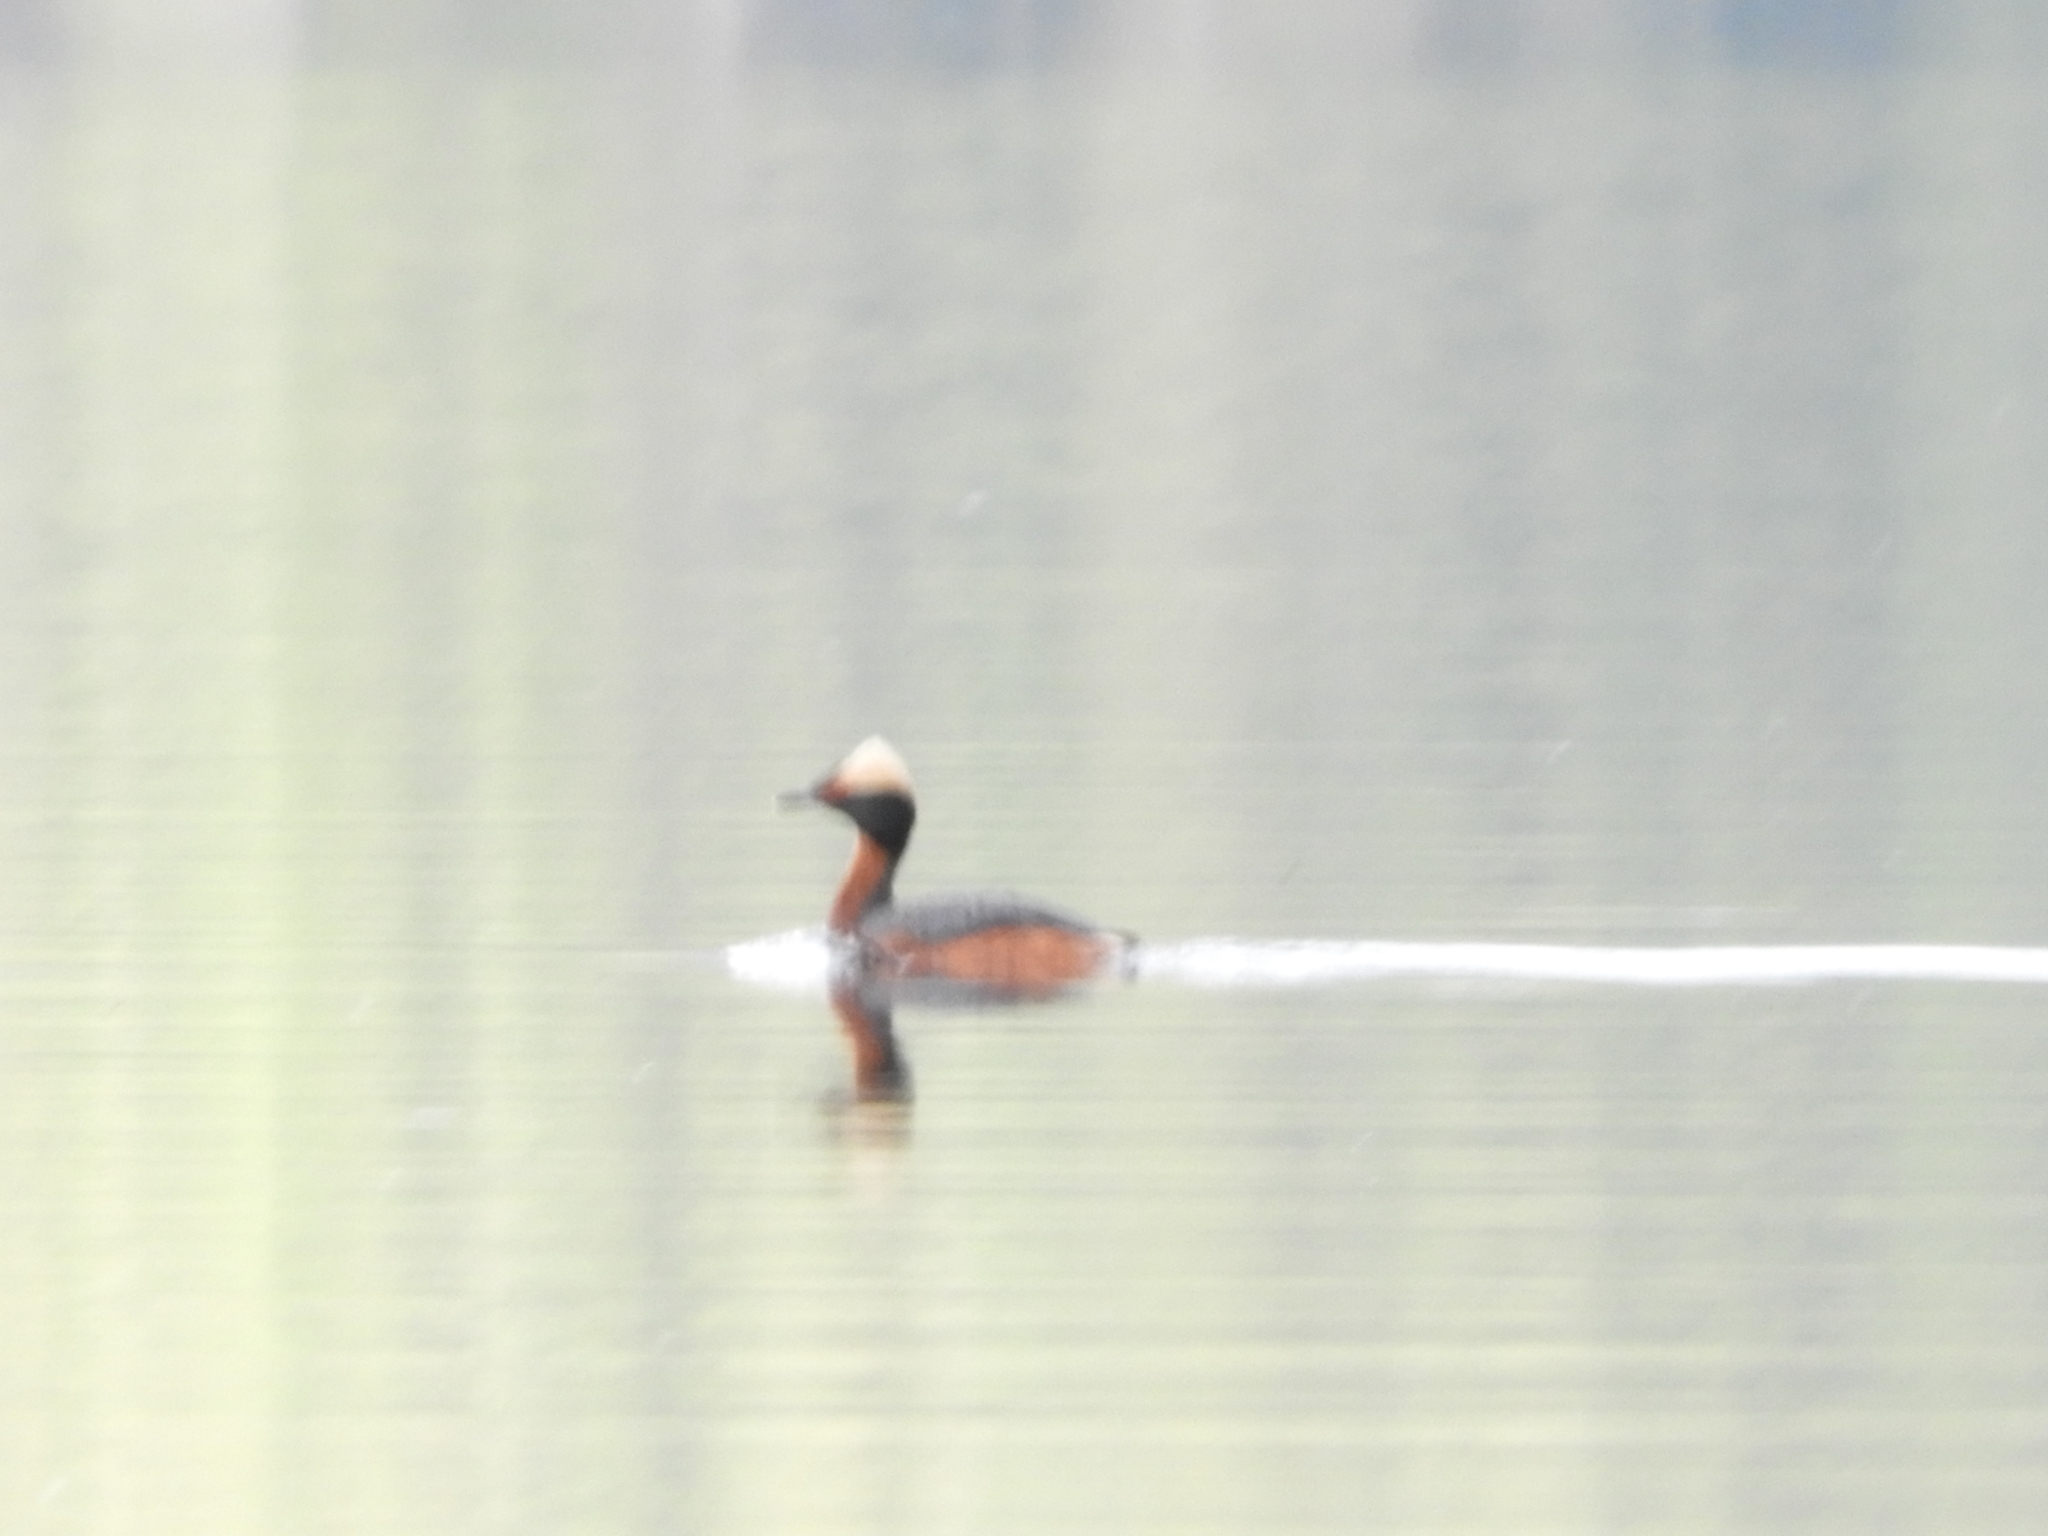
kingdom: Animalia
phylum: Chordata
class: Aves
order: Podicipediformes
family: Podicipedidae
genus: Podiceps
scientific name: Podiceps auritus
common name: Horned grebe
